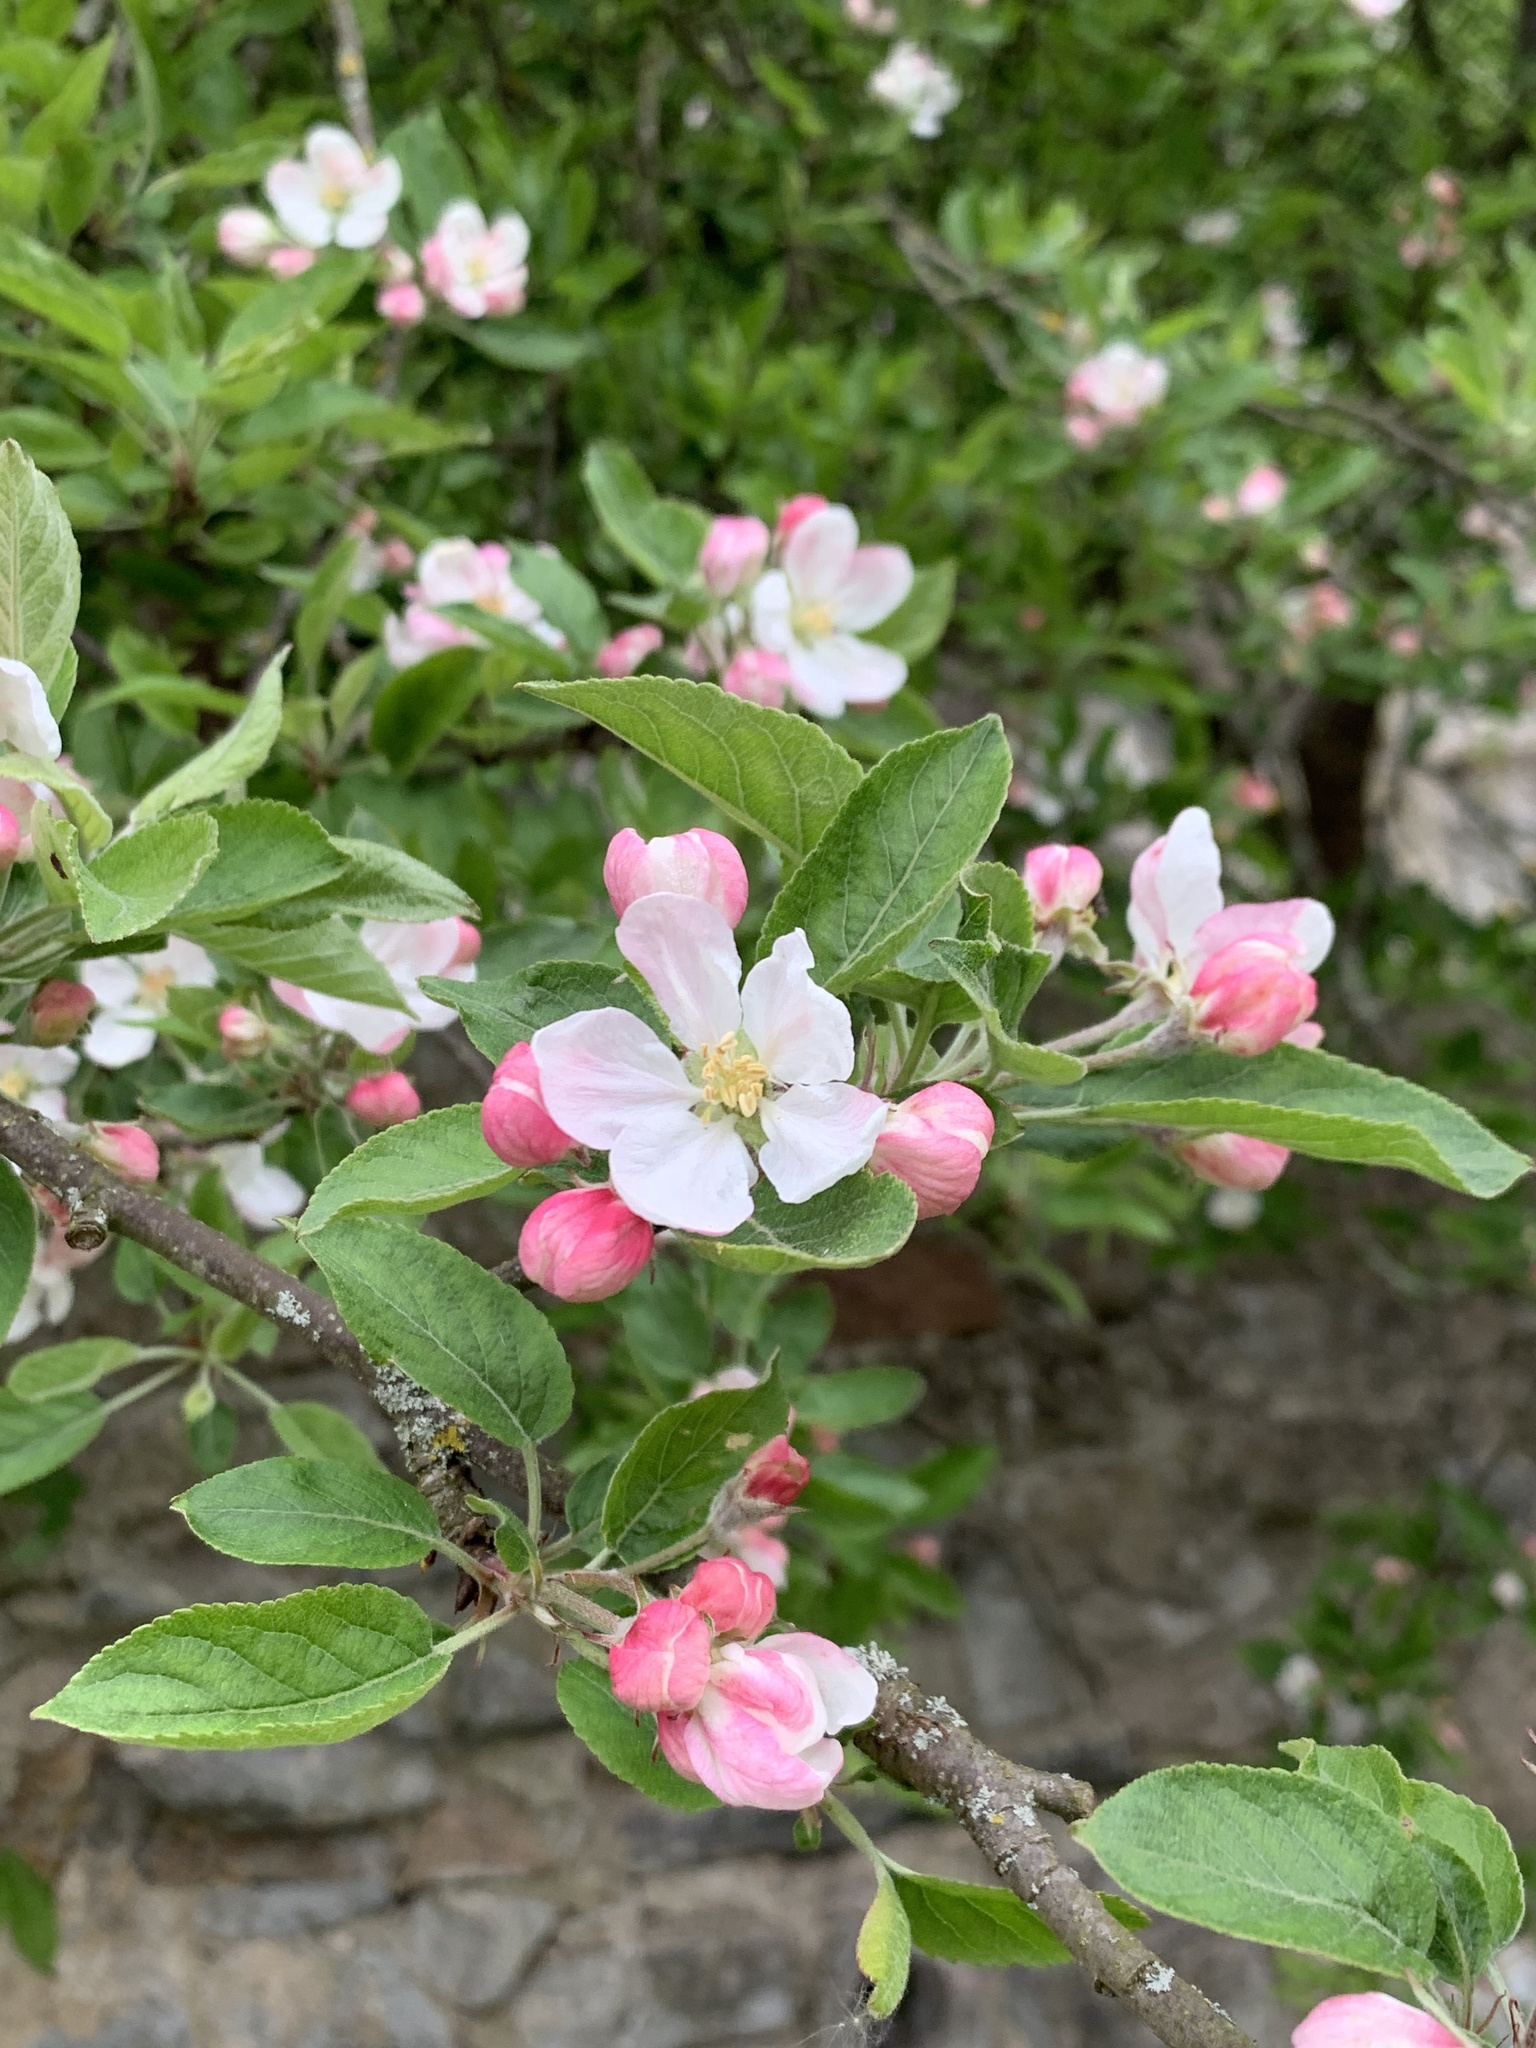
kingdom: Plantae
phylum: Tracheophyta
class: Magnoliopsida
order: Rosales
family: Rosaceae
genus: Malus
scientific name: Malus domestica
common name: Apple
